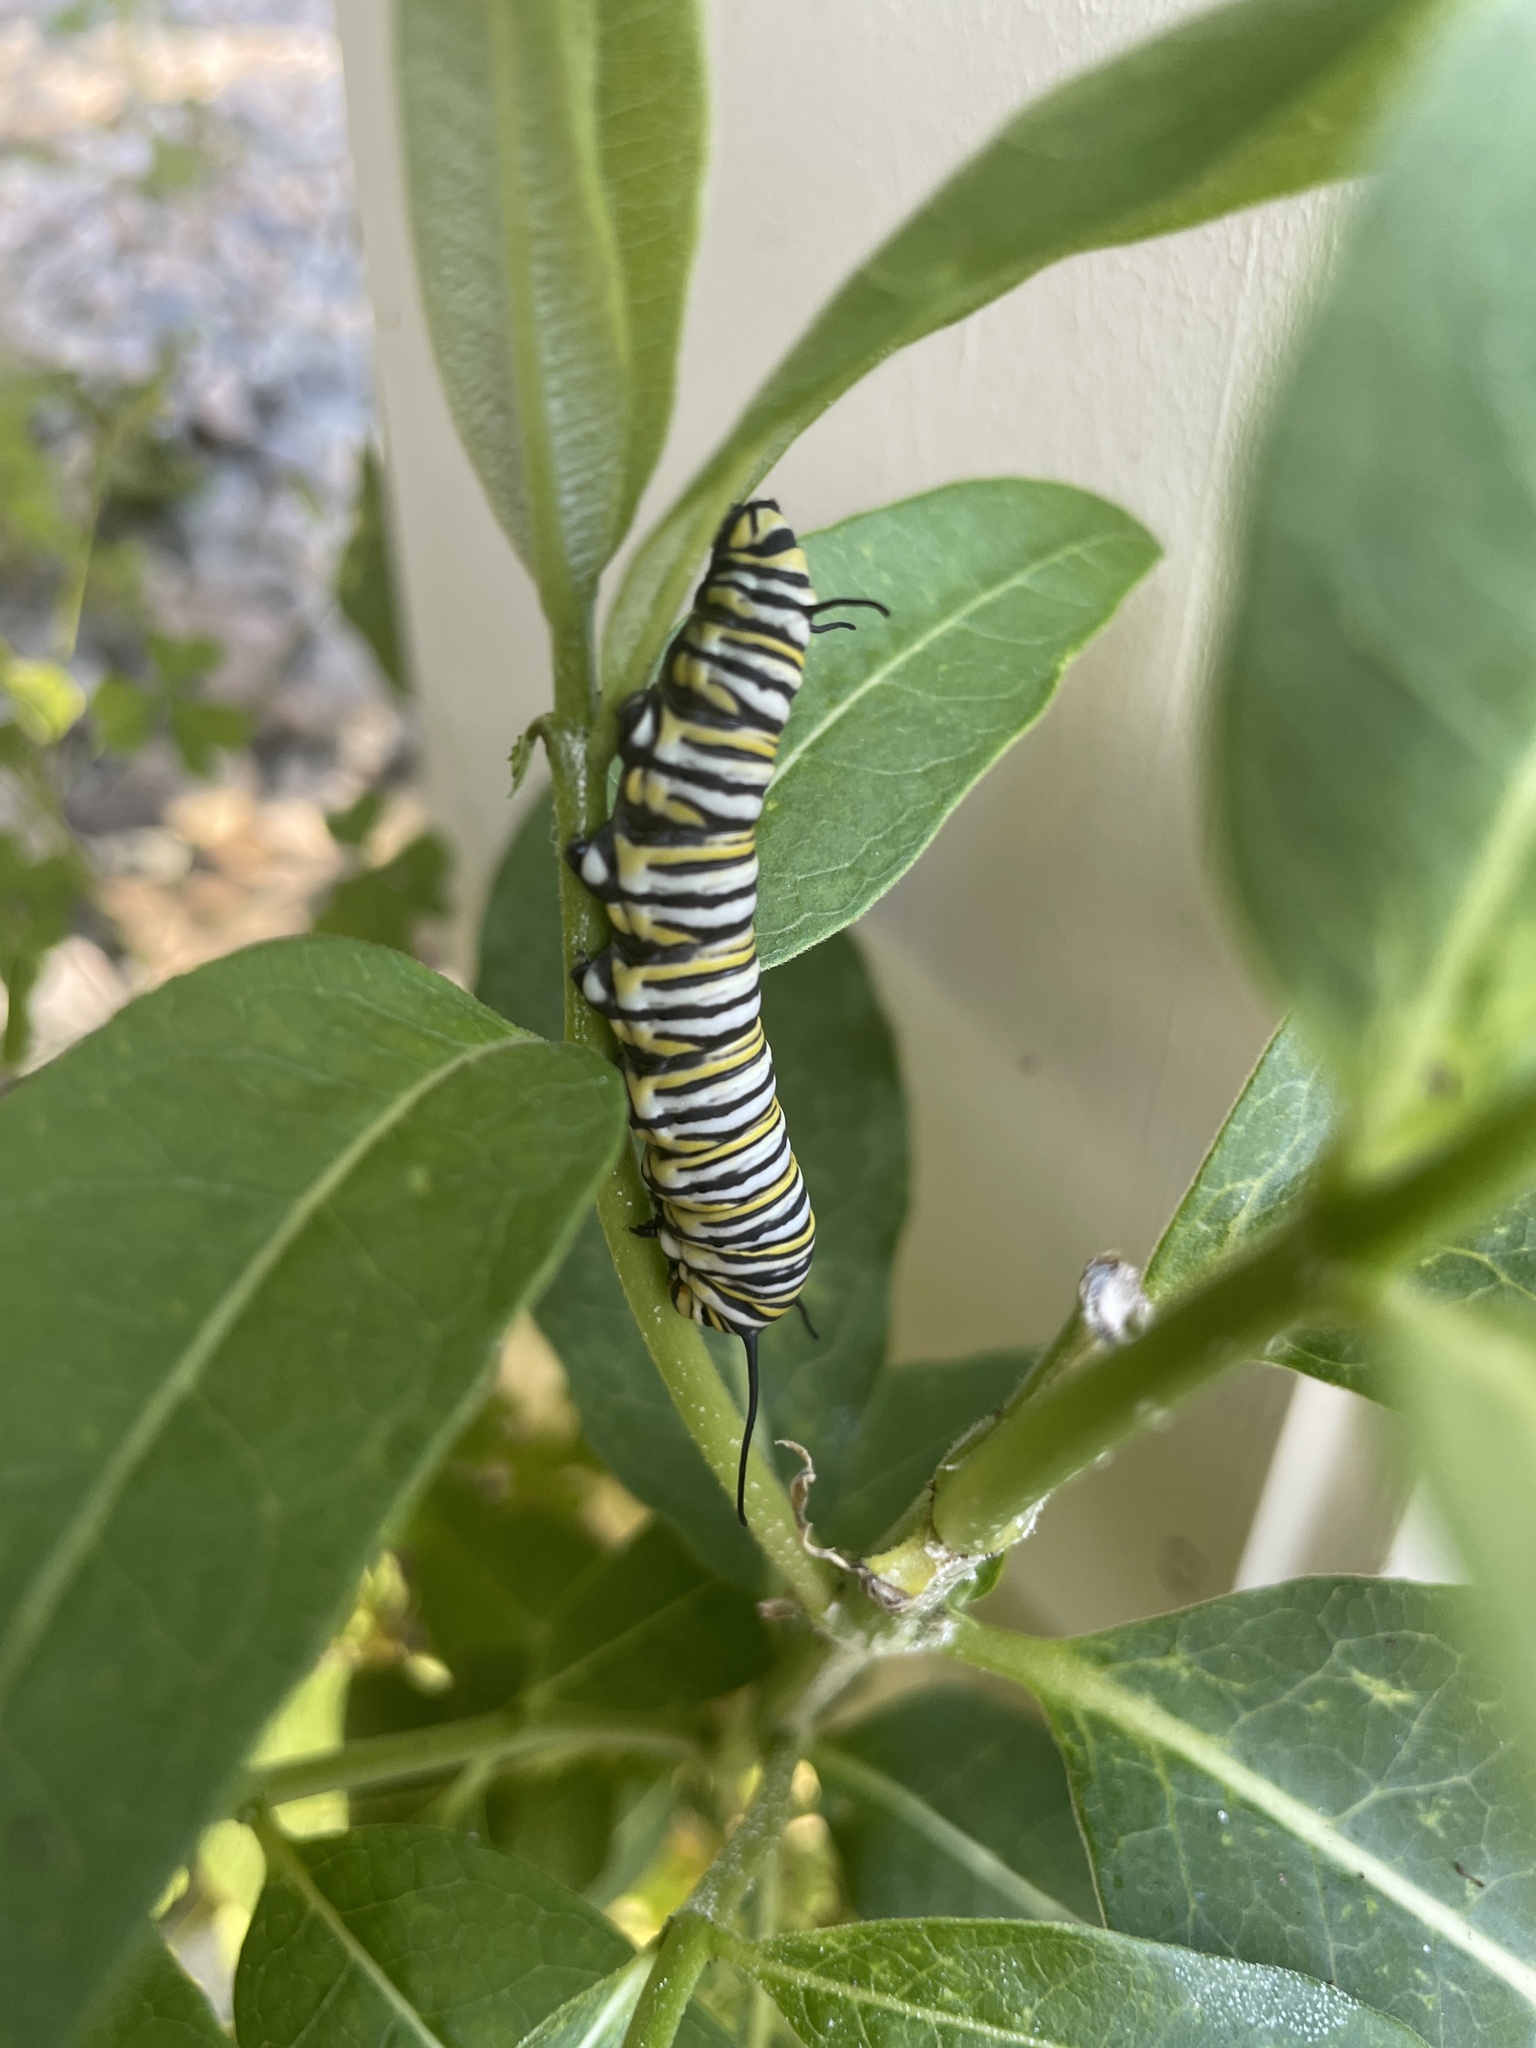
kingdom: Animalia
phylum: Arthropoda
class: Insecta
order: Lepidoptera
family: Nymphalidae
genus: Danaus
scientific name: Danaus plexippus
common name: Monarch
